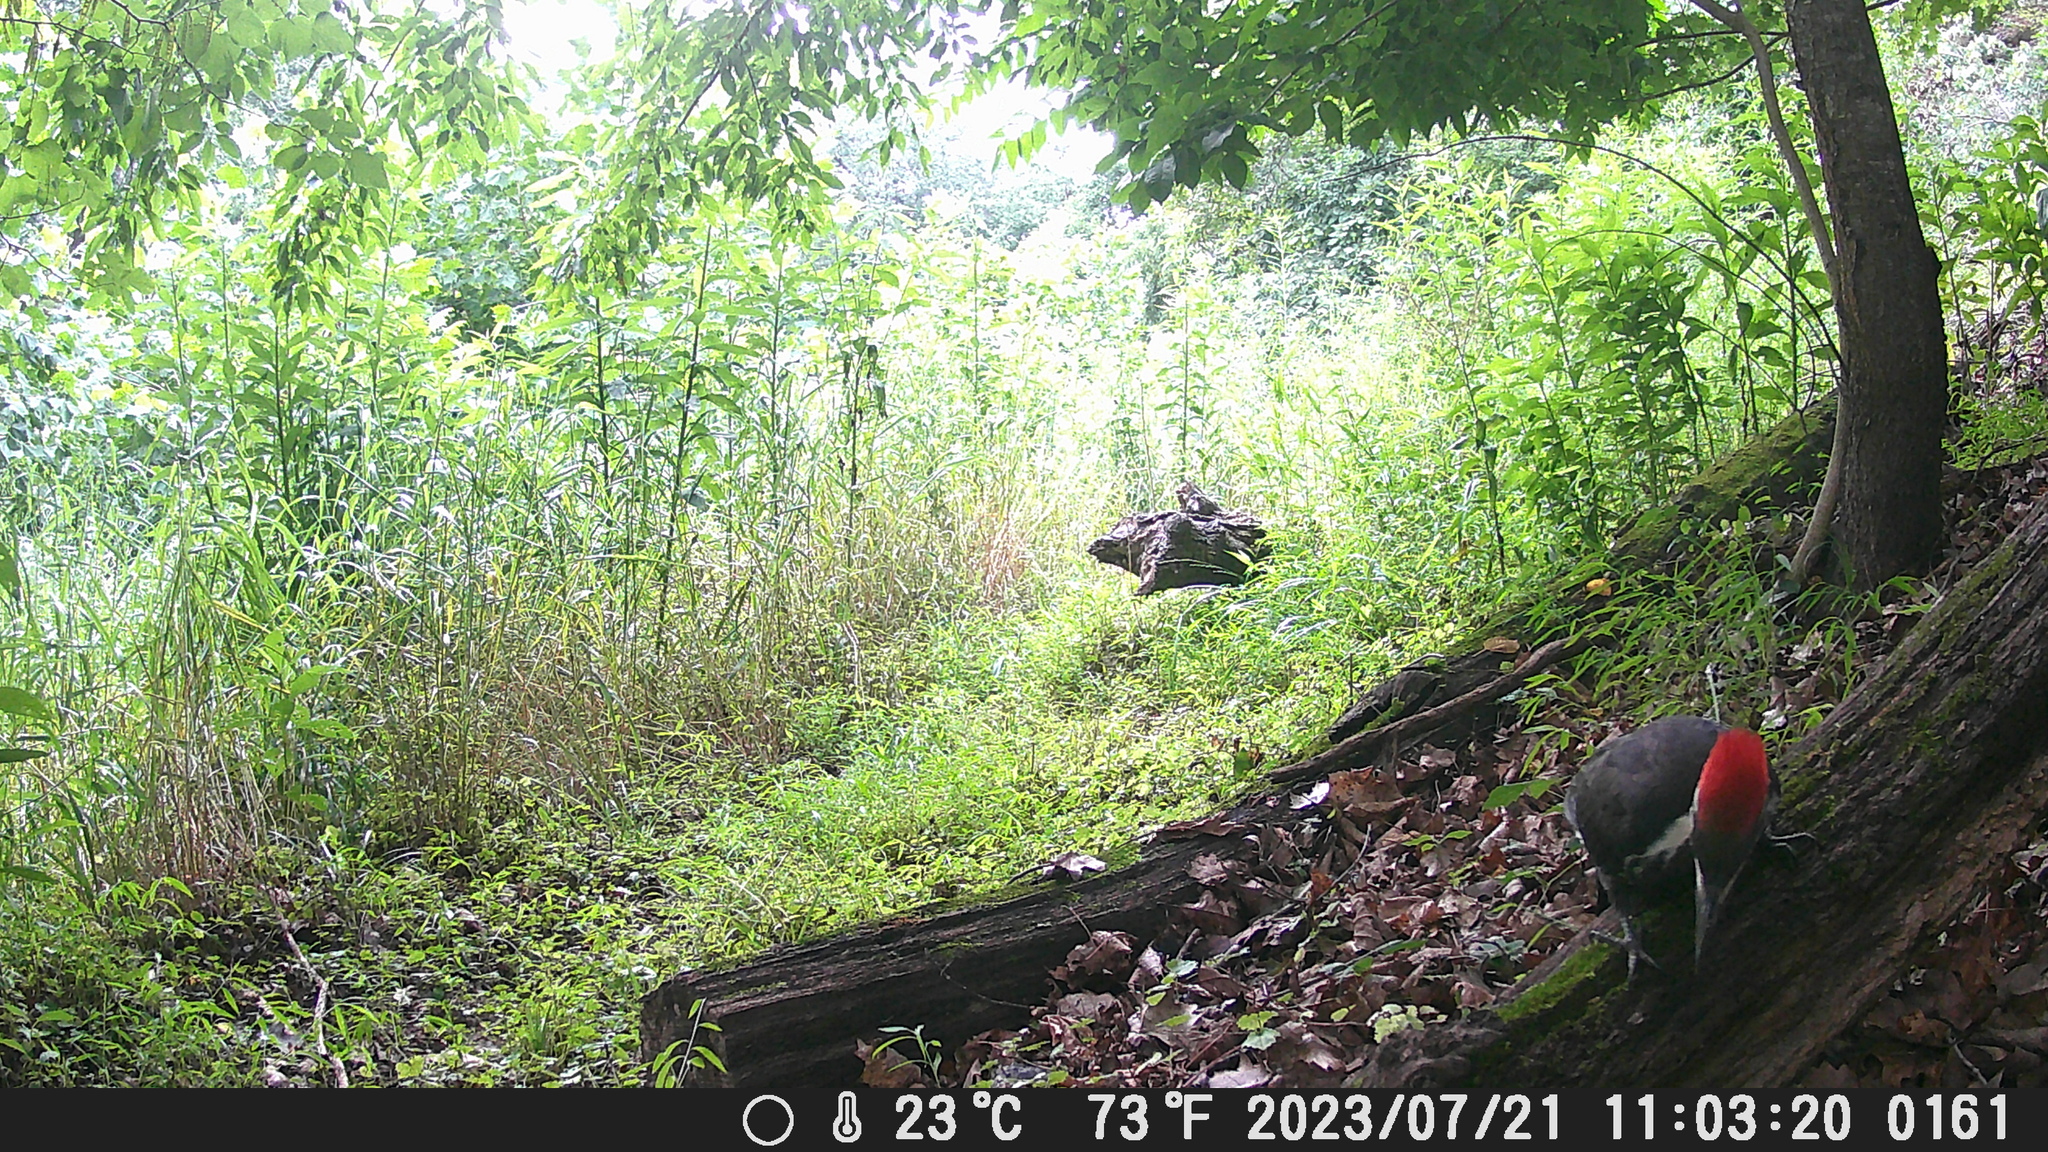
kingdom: Animalia
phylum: Chordata
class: Aves
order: Piciformes
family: Picidae
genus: Dryocopus
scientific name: Dryocopus pileatus
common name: Pileated woodpecker
